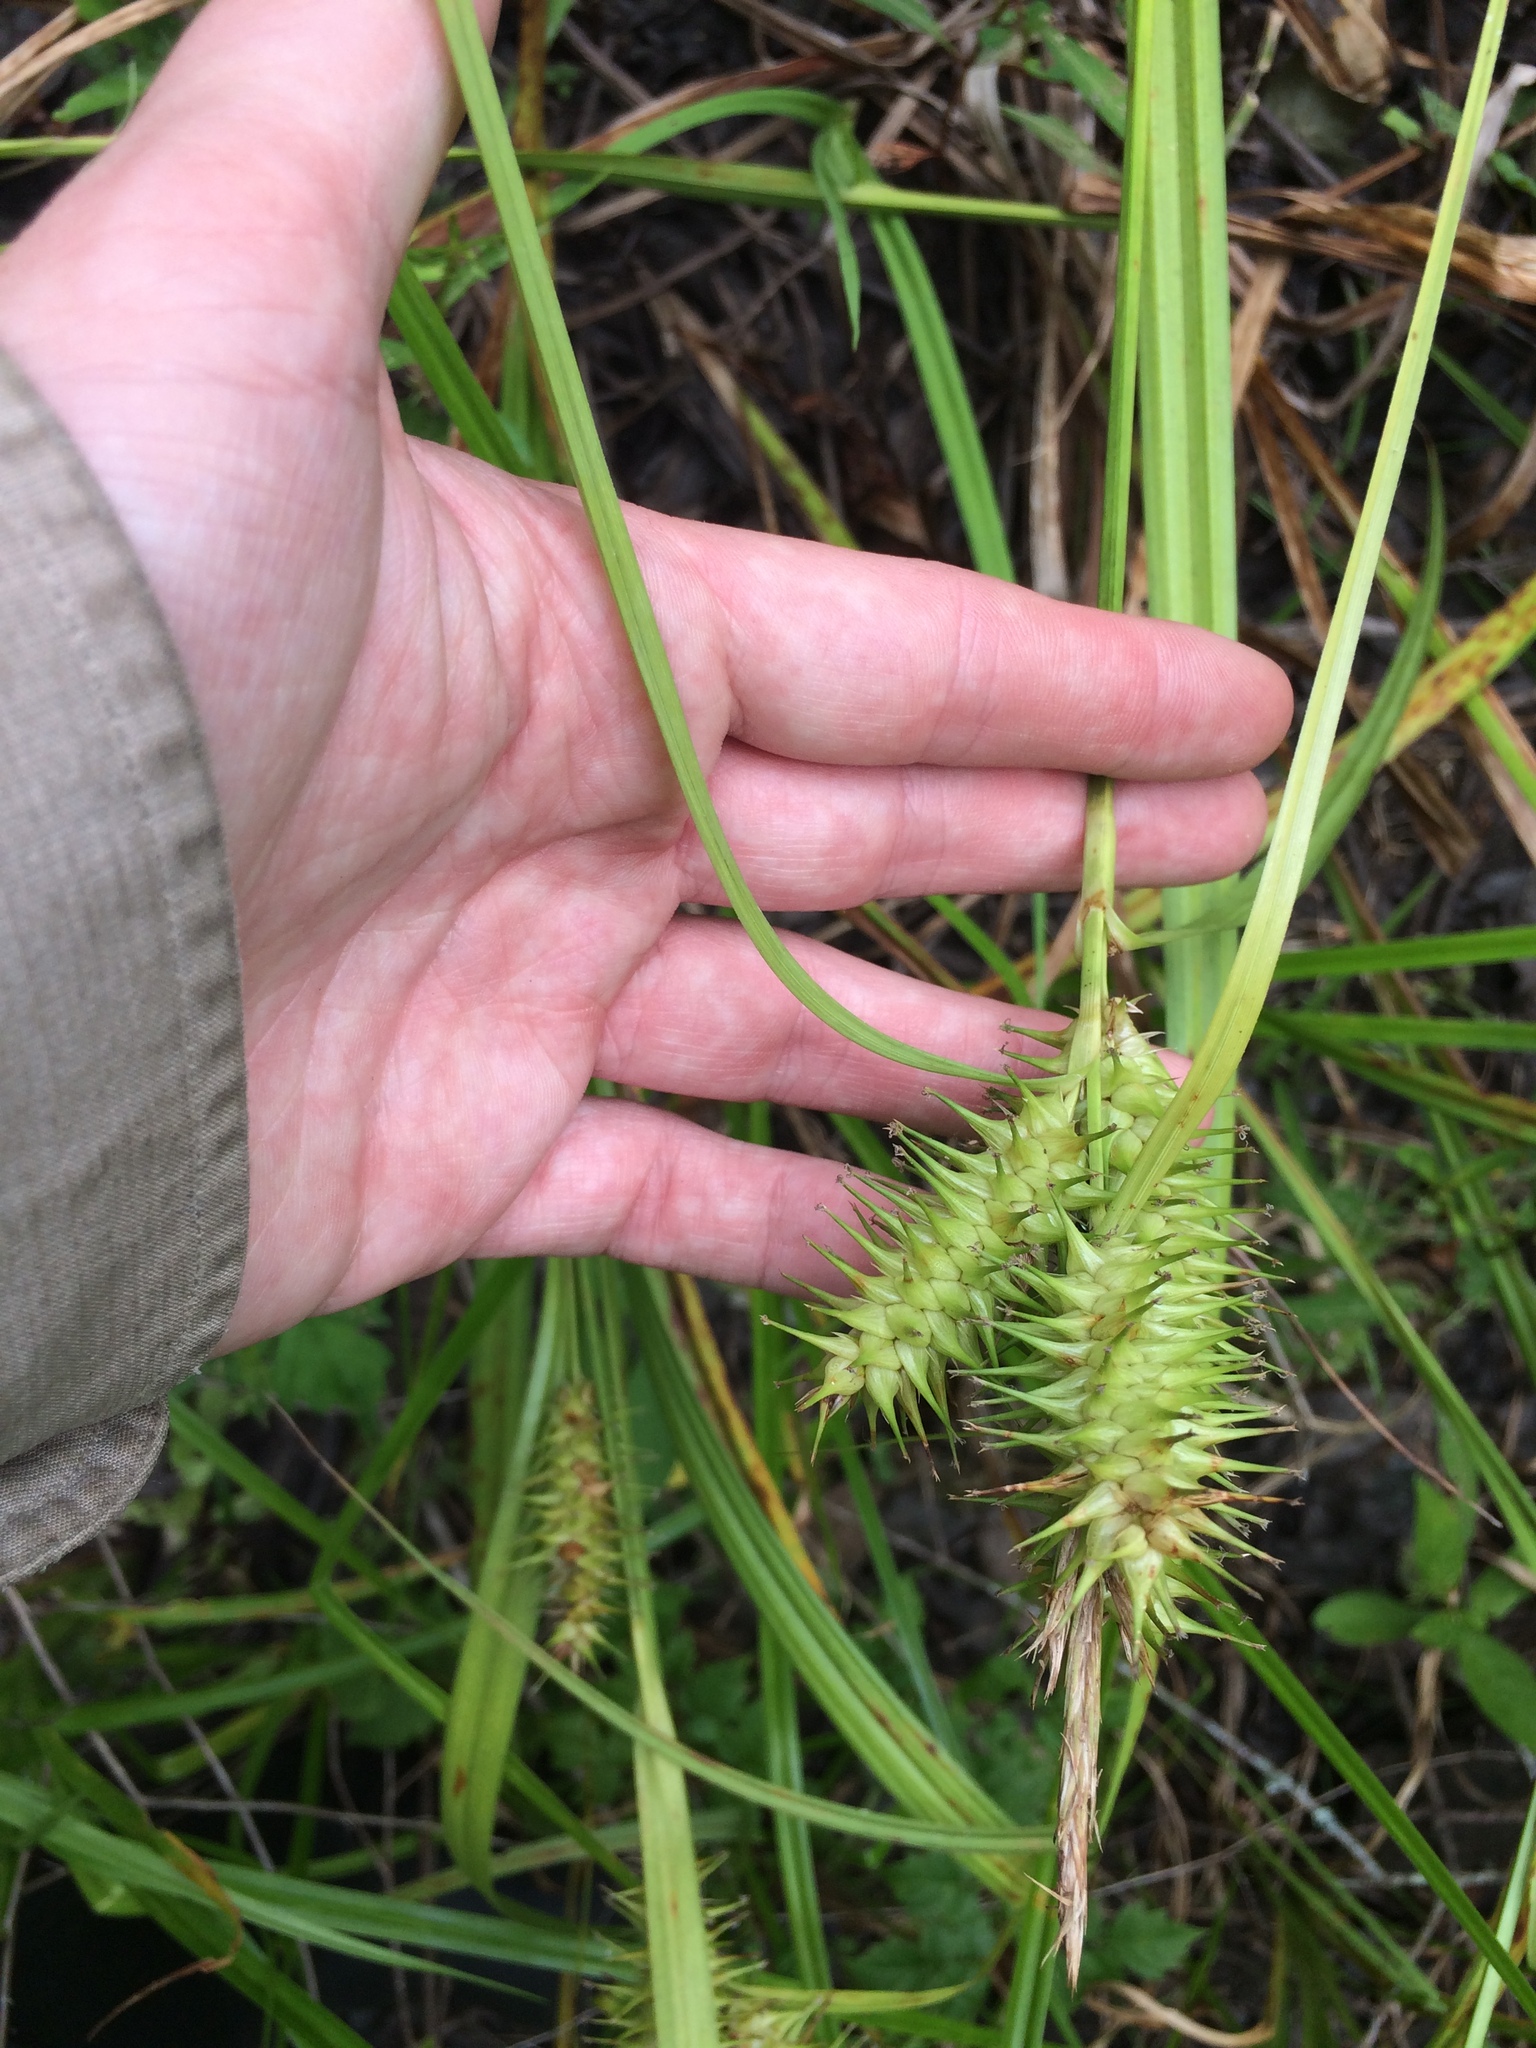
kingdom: Plantae
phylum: Tracheophyta
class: Liliopsida
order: Poales
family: Cyperaceae
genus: Carex
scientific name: Carex gigantea
